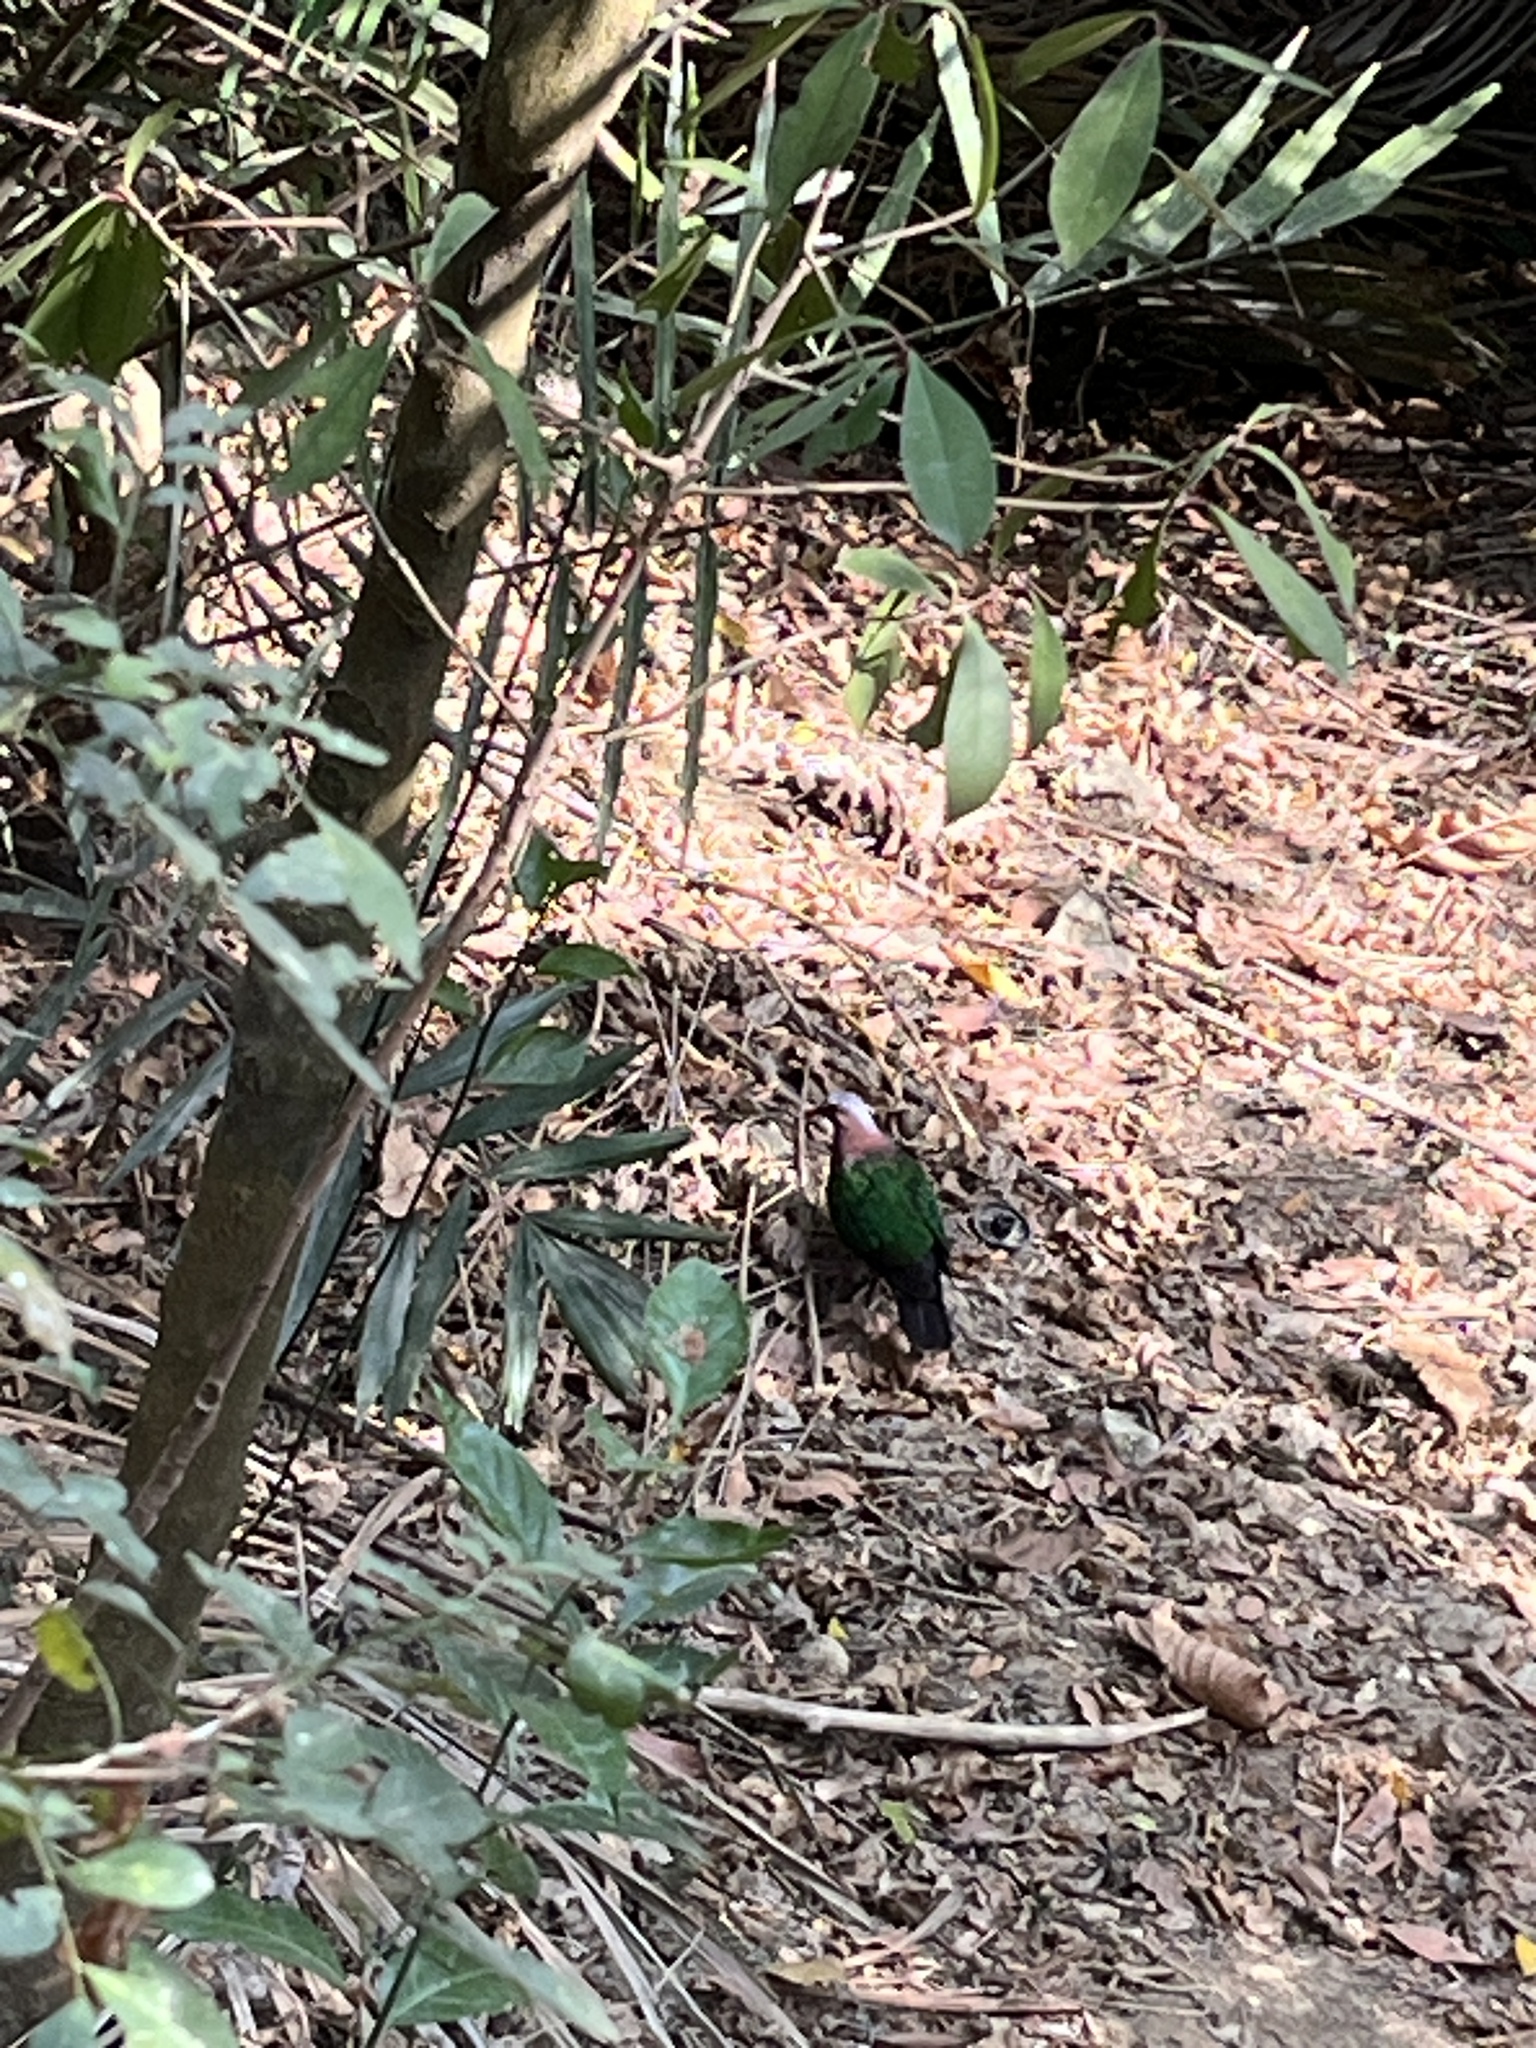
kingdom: Animalia
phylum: Chordata
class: Aves
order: Columbiformes
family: Columbidae
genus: Chalcophaps
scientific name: Chalcophaps indica
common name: Common emerald dove
